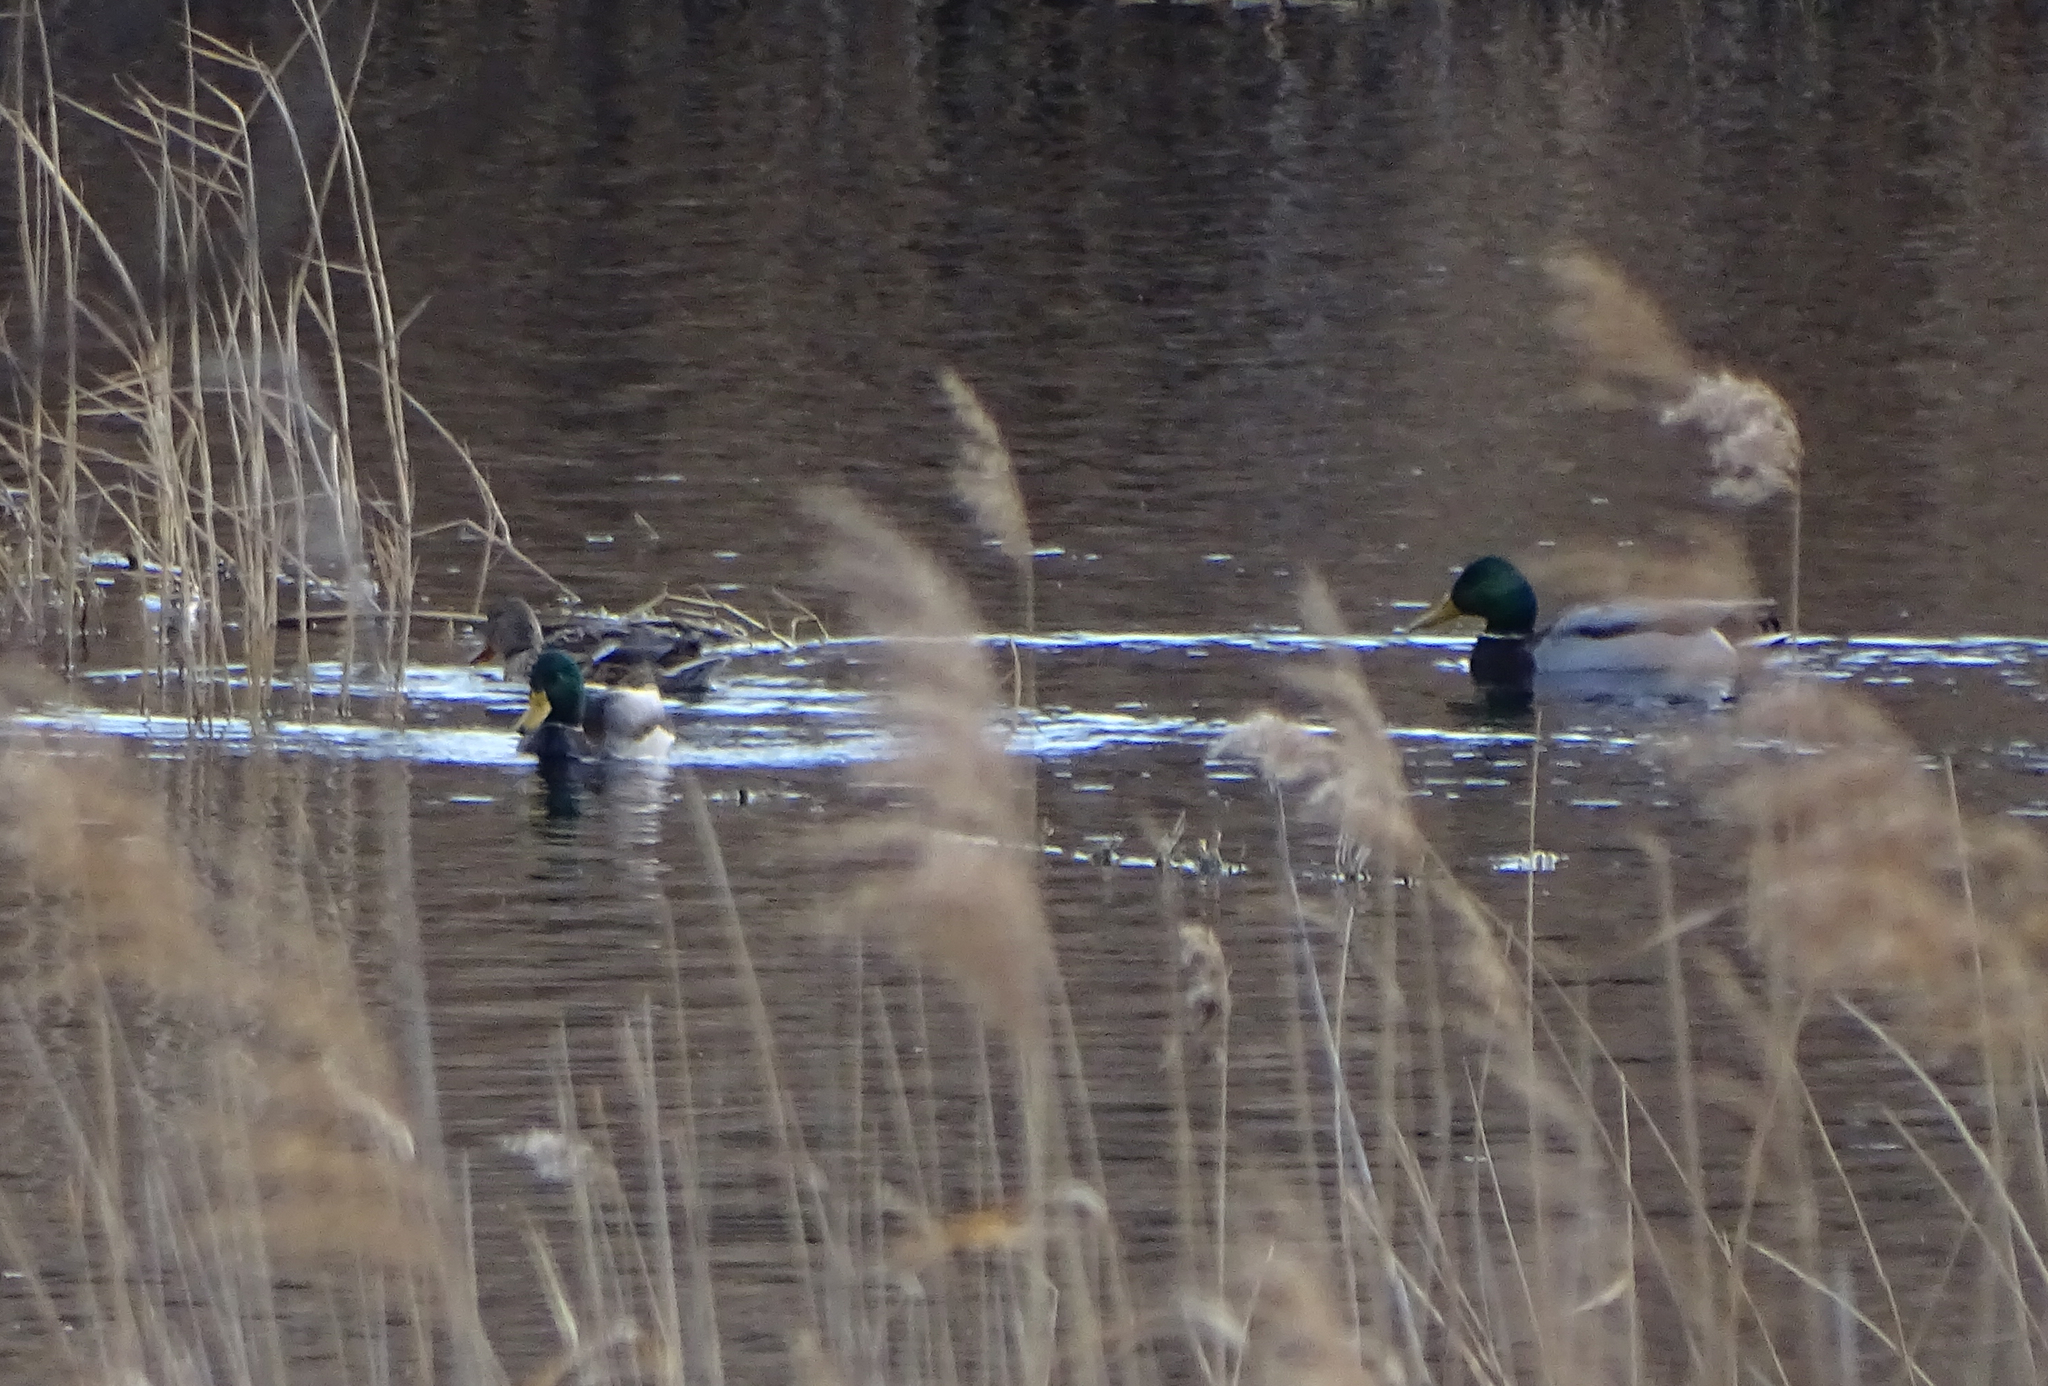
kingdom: Animalia
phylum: Chordata
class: Aves
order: Anseriformes
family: Anatidae
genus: Anas
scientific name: Anas platyrhynchos
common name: Mallard
